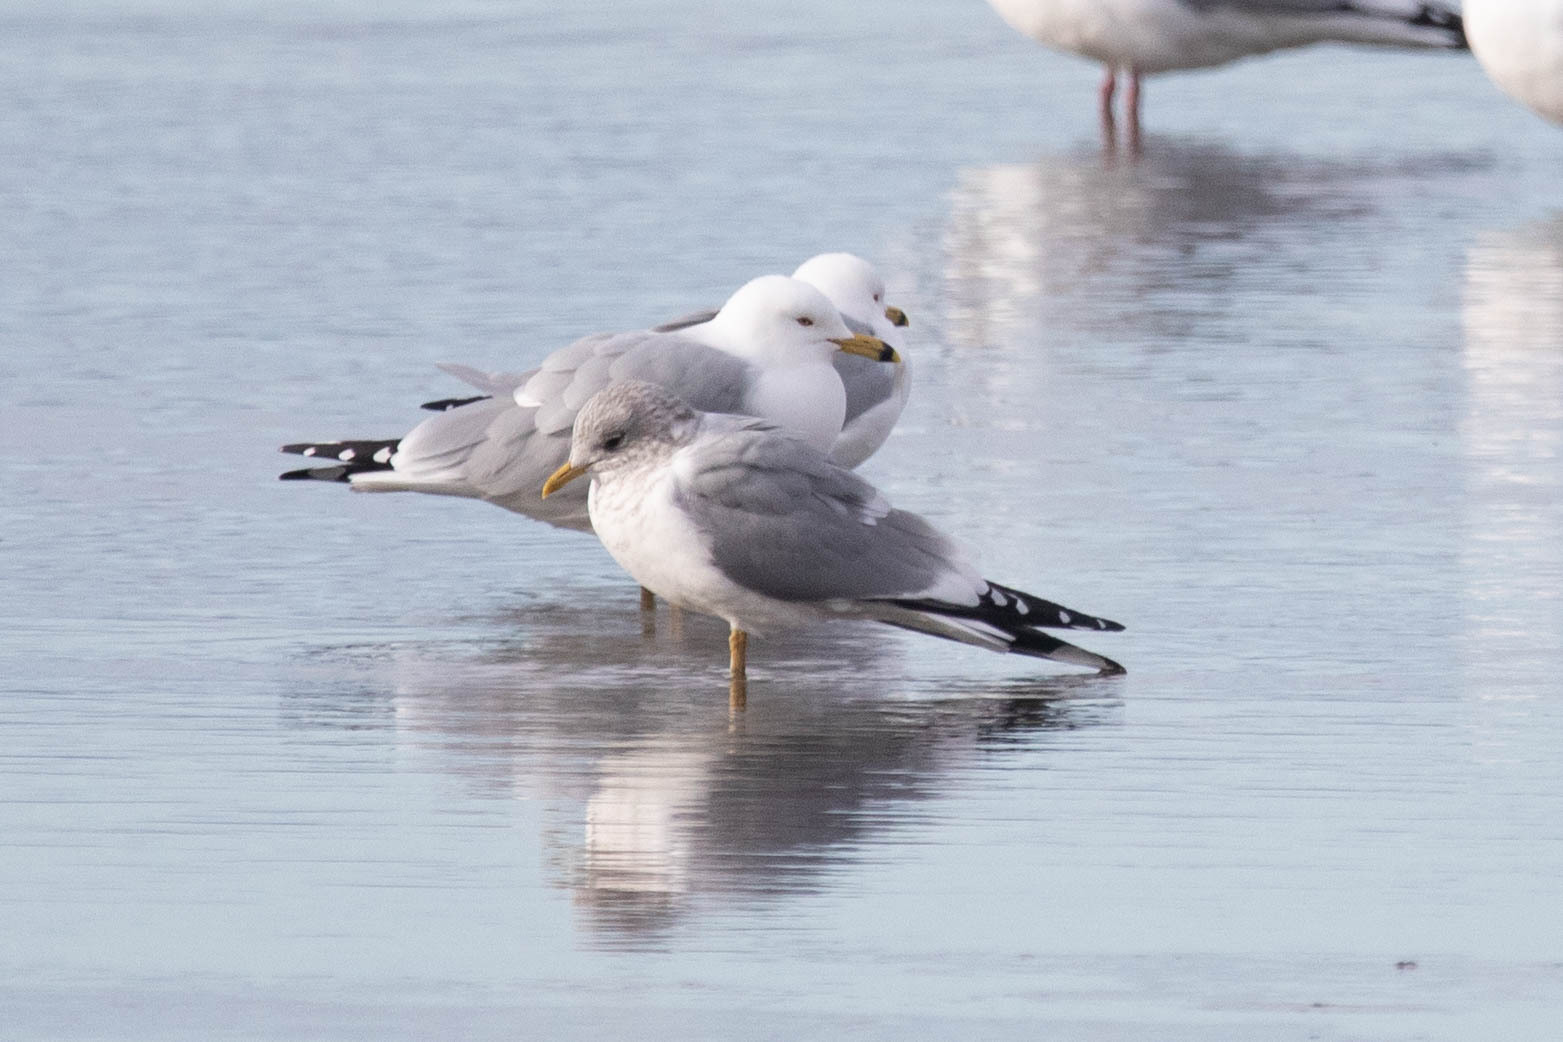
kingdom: Animalia
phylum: Chordata
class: Aves
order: Charadriiformes
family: Laridae
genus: Larus
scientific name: Larus brachyrhynchus
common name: Short-billed gull
